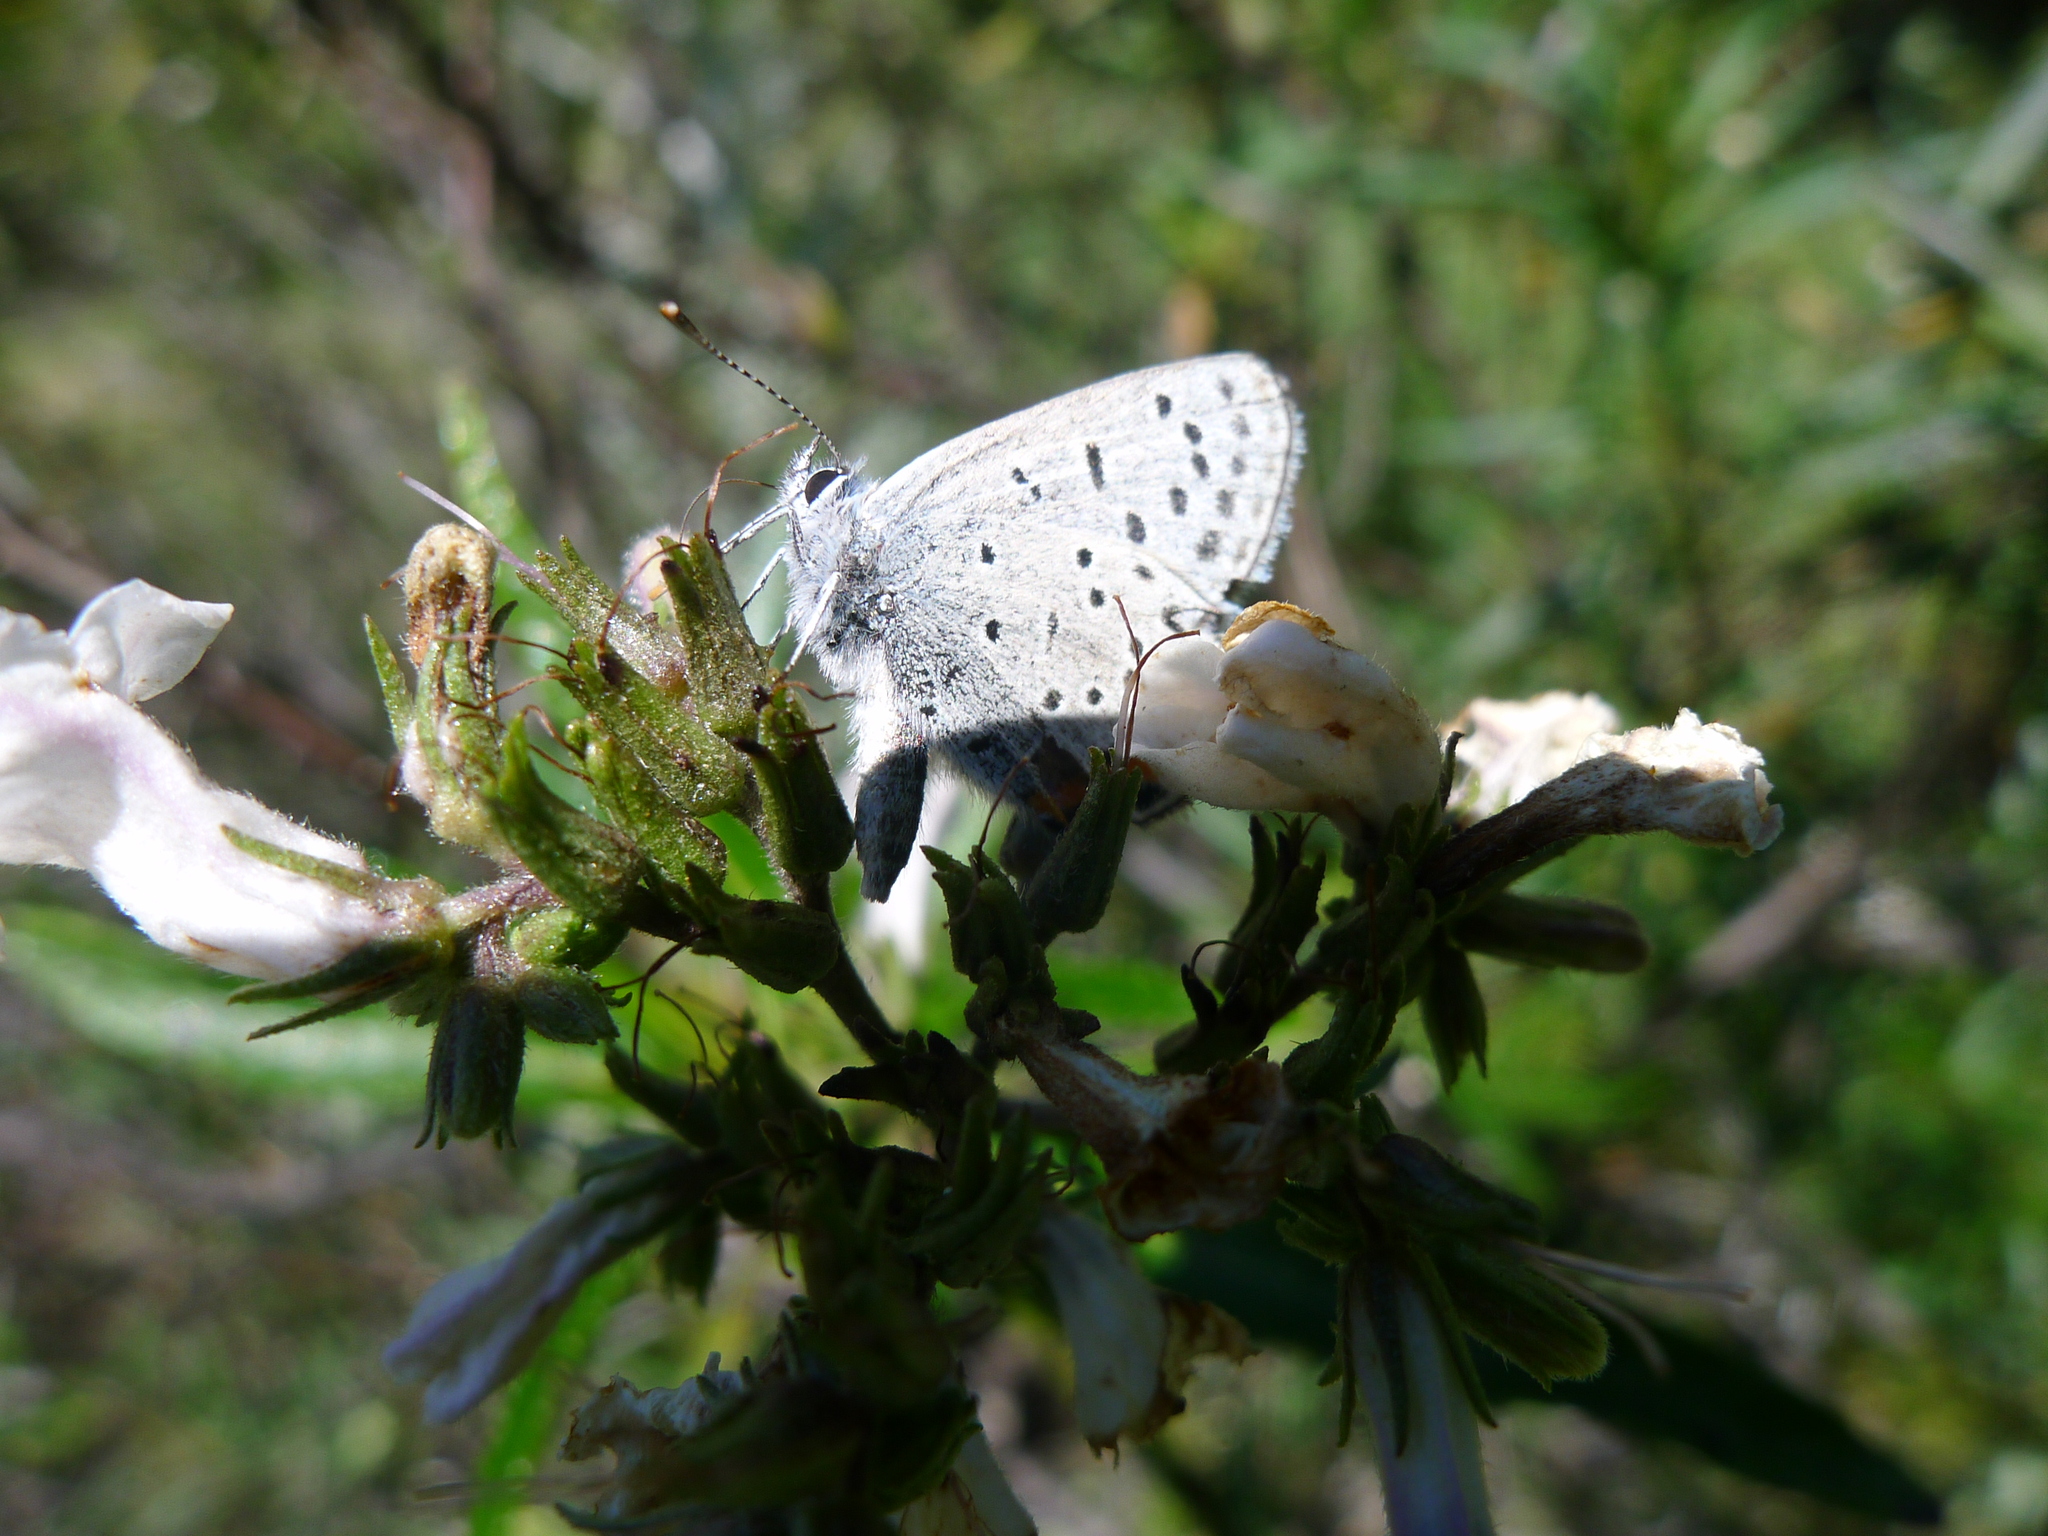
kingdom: Animalia
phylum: Arthropoda
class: Insecta
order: Lepidoptera
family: Lycaenidae
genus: Icaricia
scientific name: Icaricia icarioides
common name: Boisduval's blue
